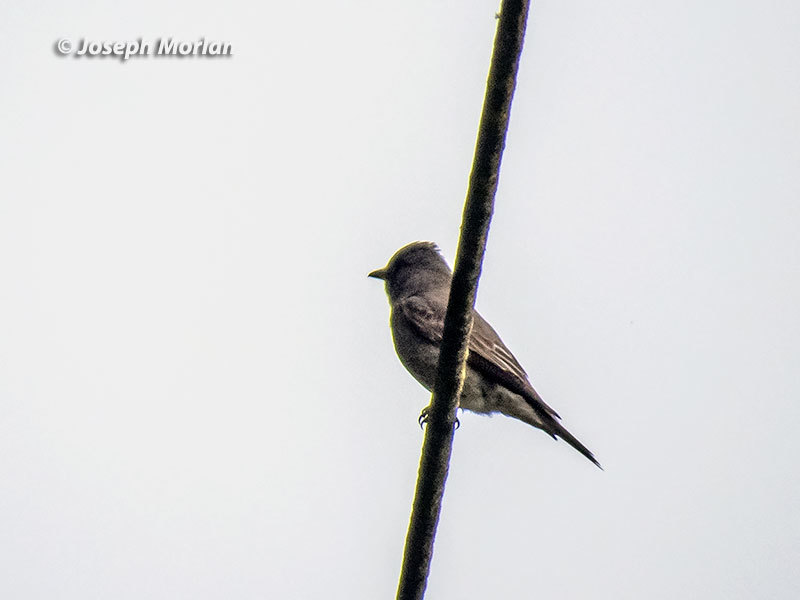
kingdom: Animalia
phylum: Chordata
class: Aves
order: Passeriformes
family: Tyrannidae
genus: Contopus
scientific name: Contopus sordidulus
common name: Western wood-pewee
